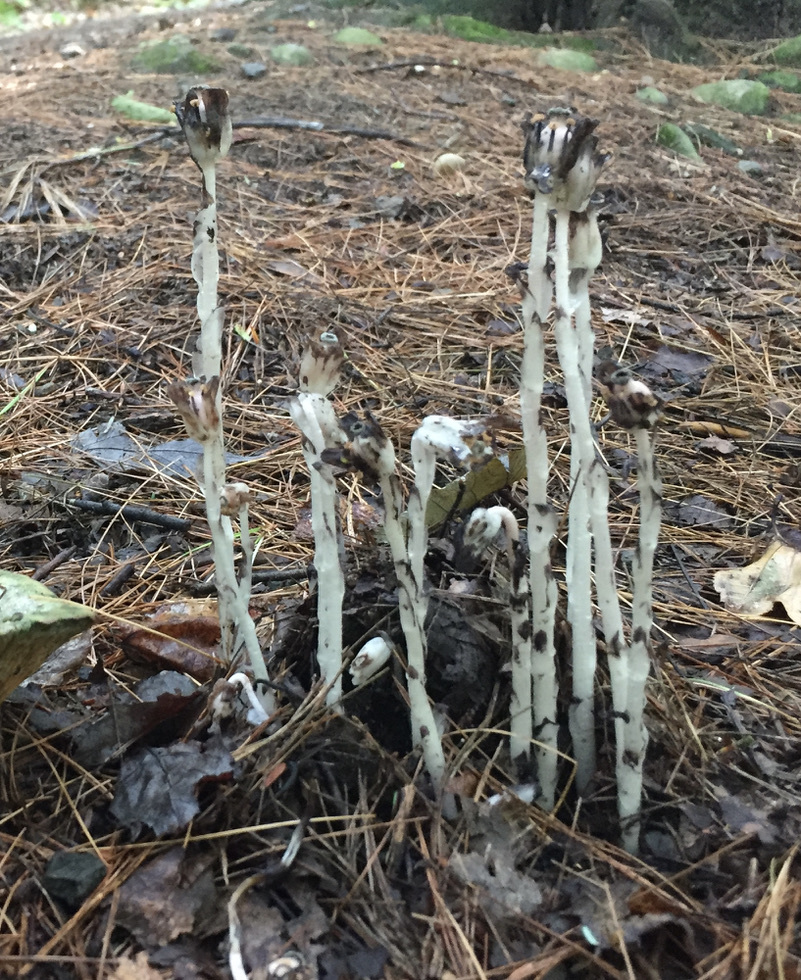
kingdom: Plantae
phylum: Tracheophyta
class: Magnoliopsida
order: Ericales
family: Ericaceae
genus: Monotropa
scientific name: Monotropa uniflora
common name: Convulsion root
